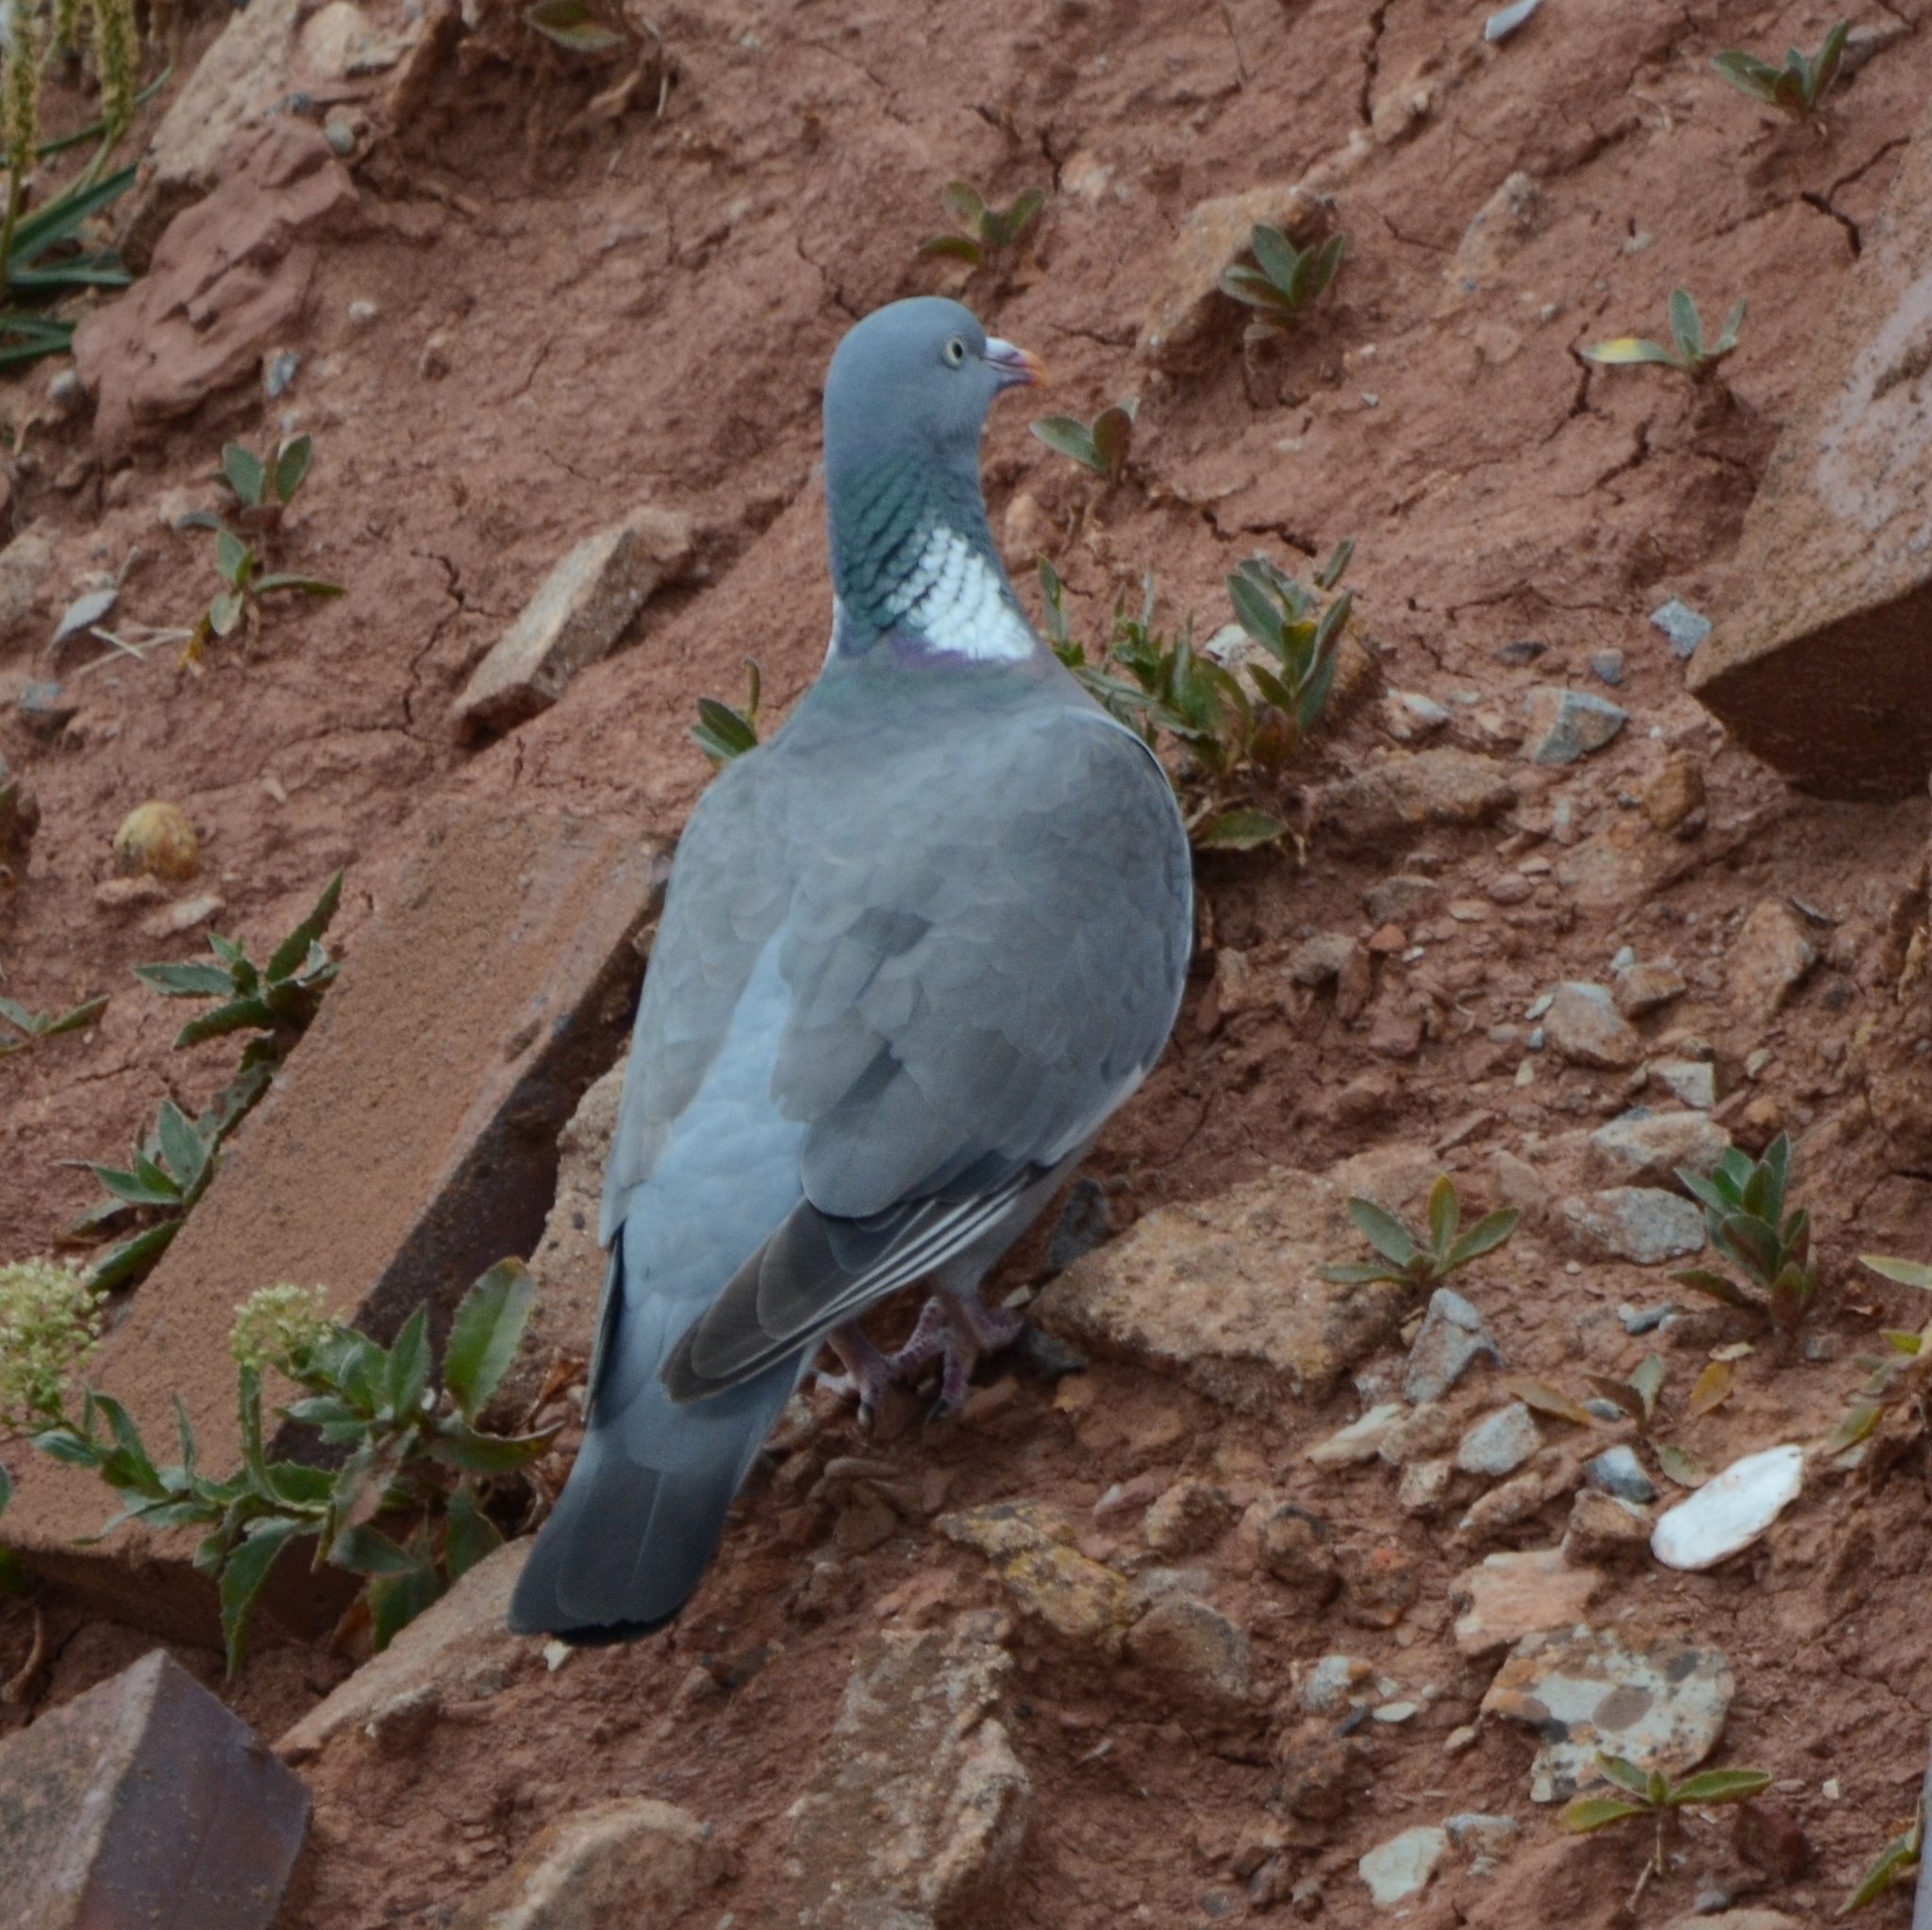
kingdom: Animalia
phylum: Chordata
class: Aves
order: Columbiformes
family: Columbidae
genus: Columba
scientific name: Columba palumbus
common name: Common wood pigeon
